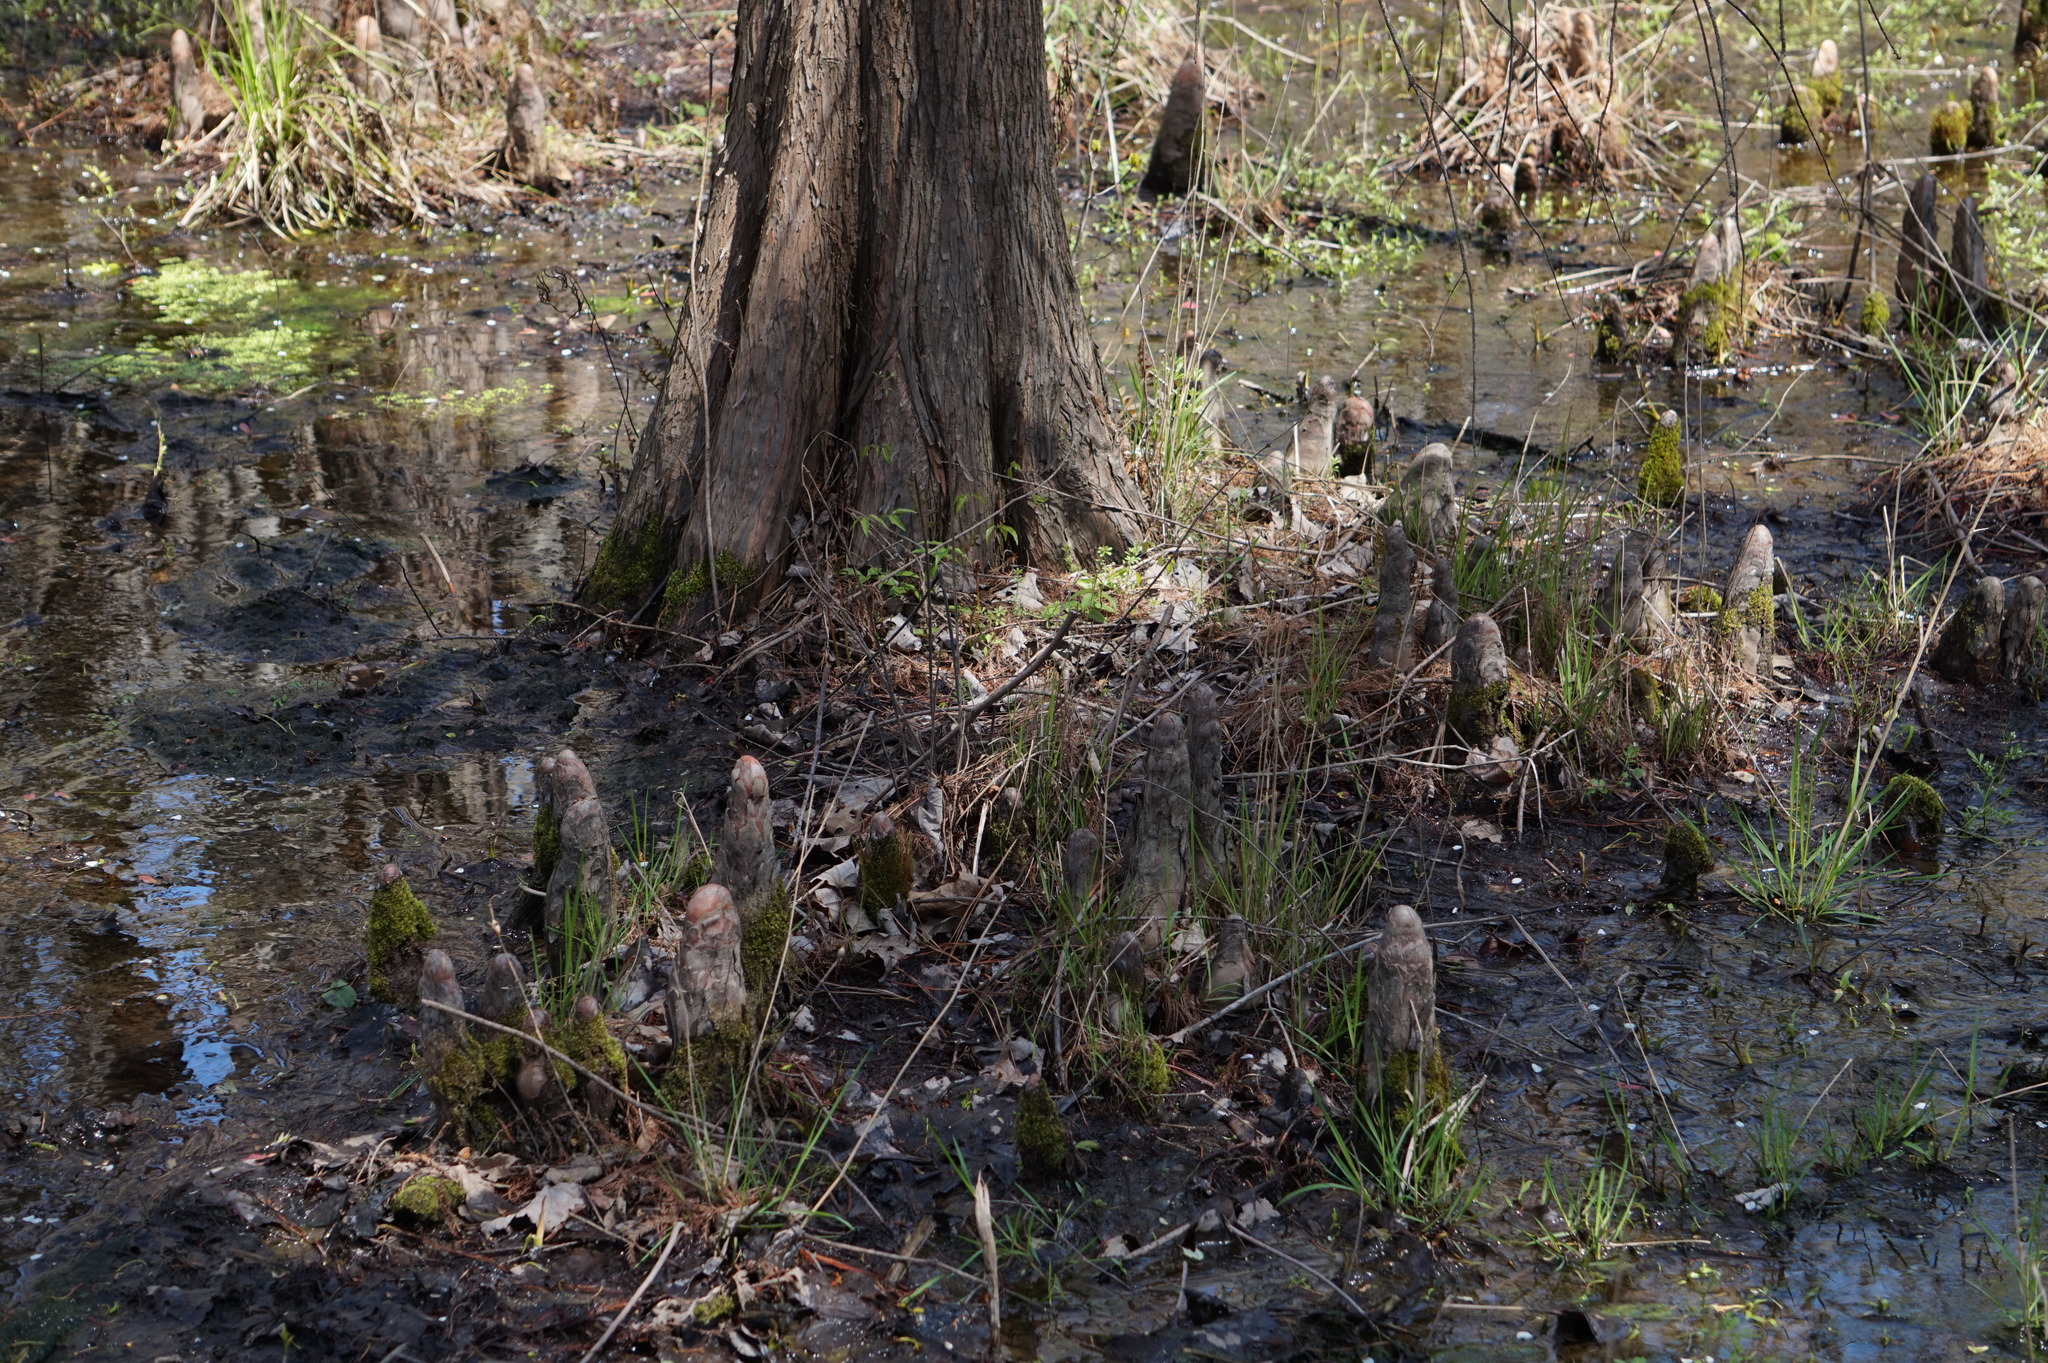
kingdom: Plantae
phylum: Tracheophyta
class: Pinopsida
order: Pinales
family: Cupressaceae
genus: Taxodium
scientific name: Taxodium distichum
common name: Bald cypress
